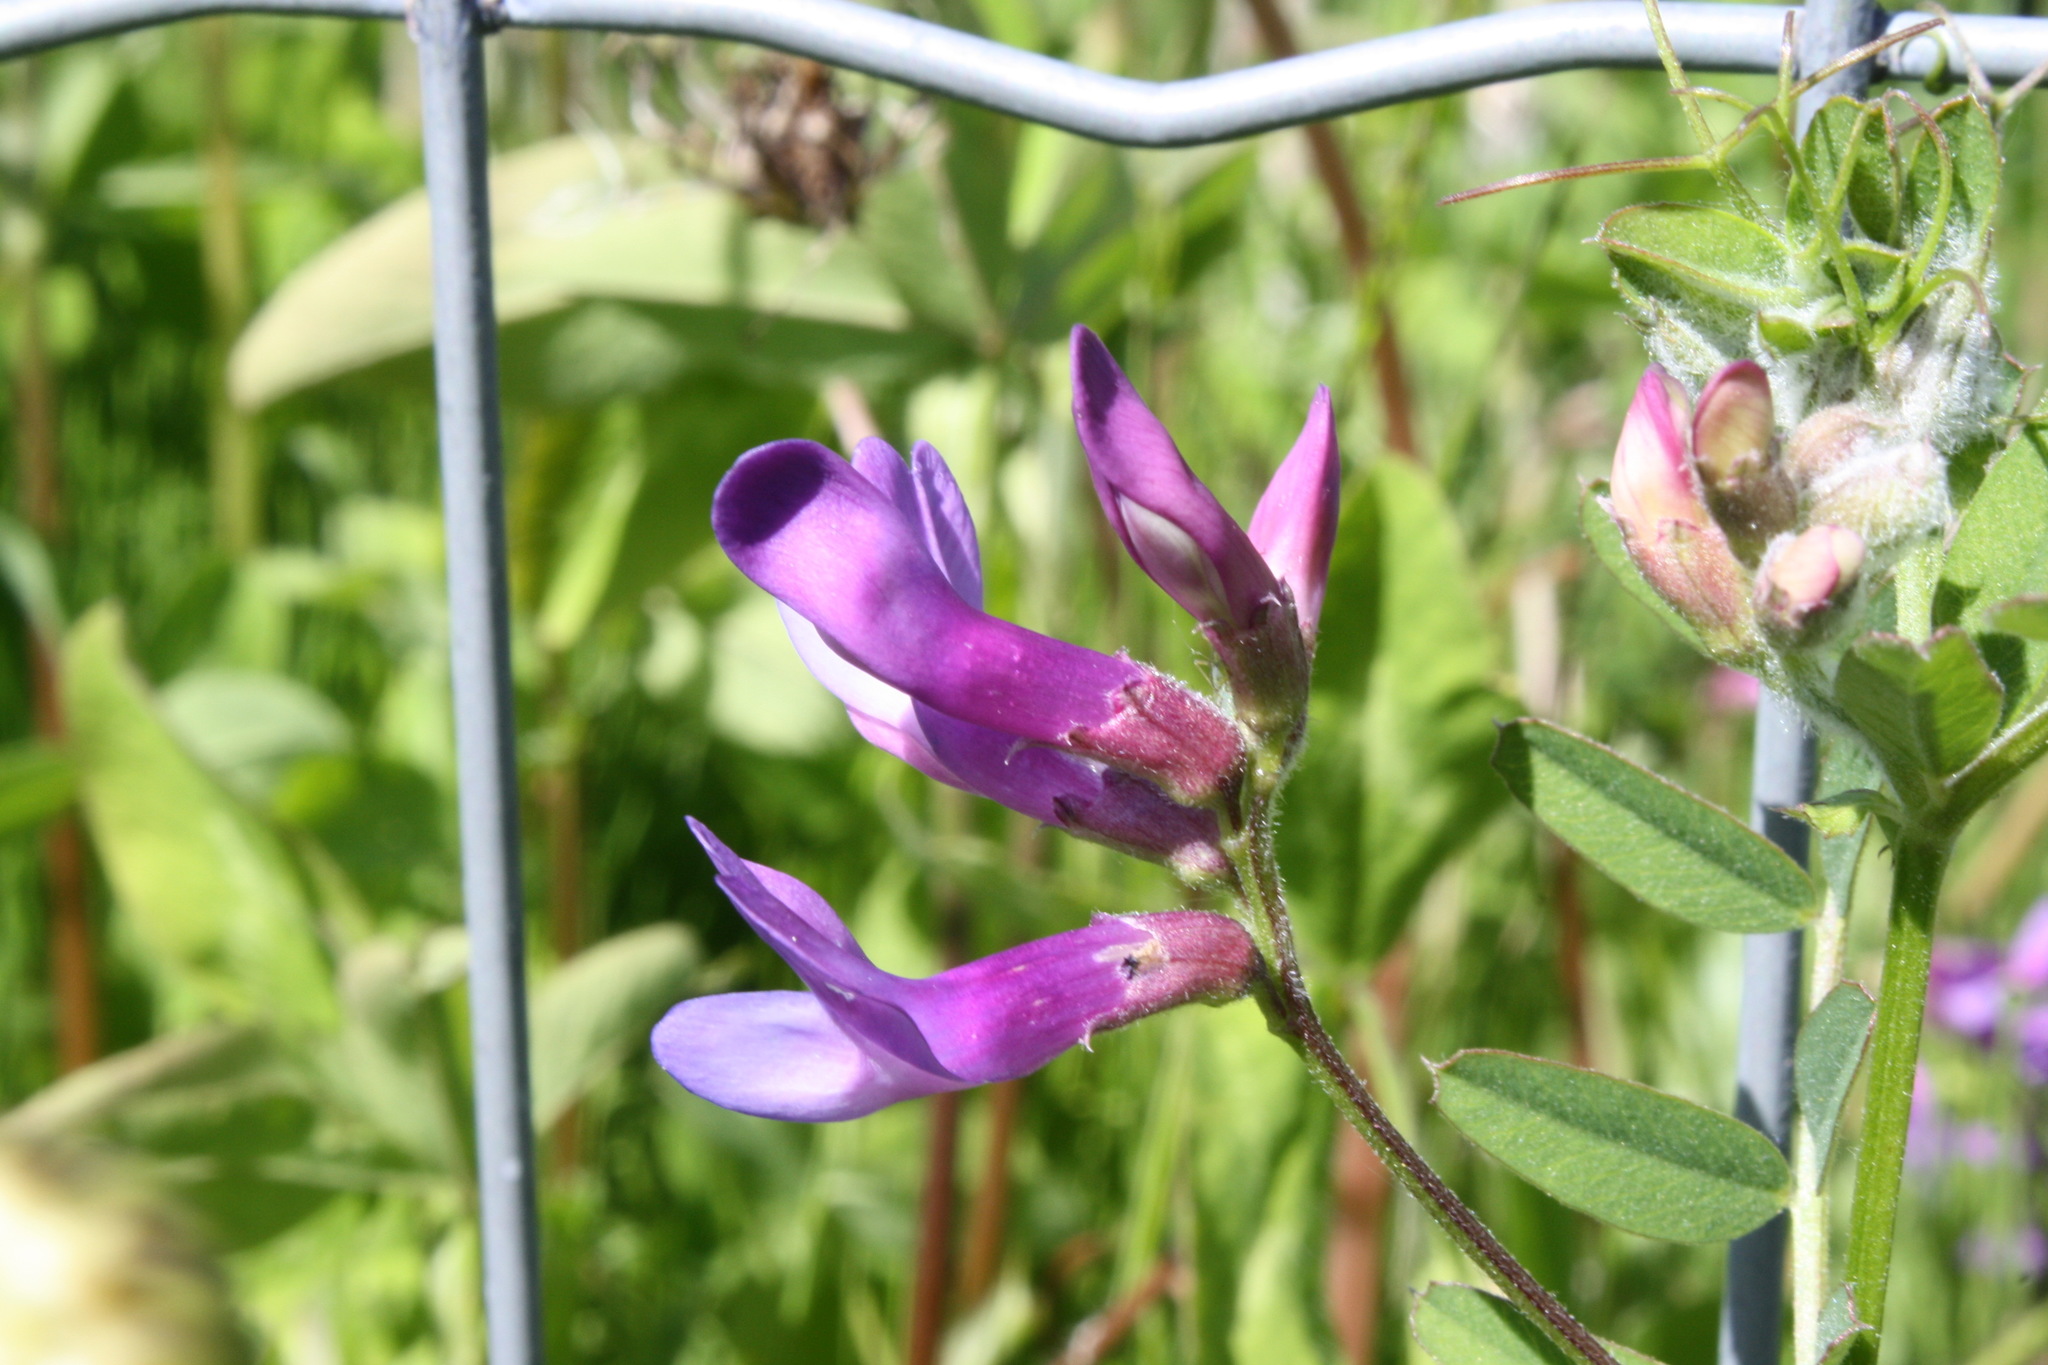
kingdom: Plantae
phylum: Tracheophyta
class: Magnoliopsida
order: Fabales
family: Fabaceae
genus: Vicia
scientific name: Vicia americana
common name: American vetch
